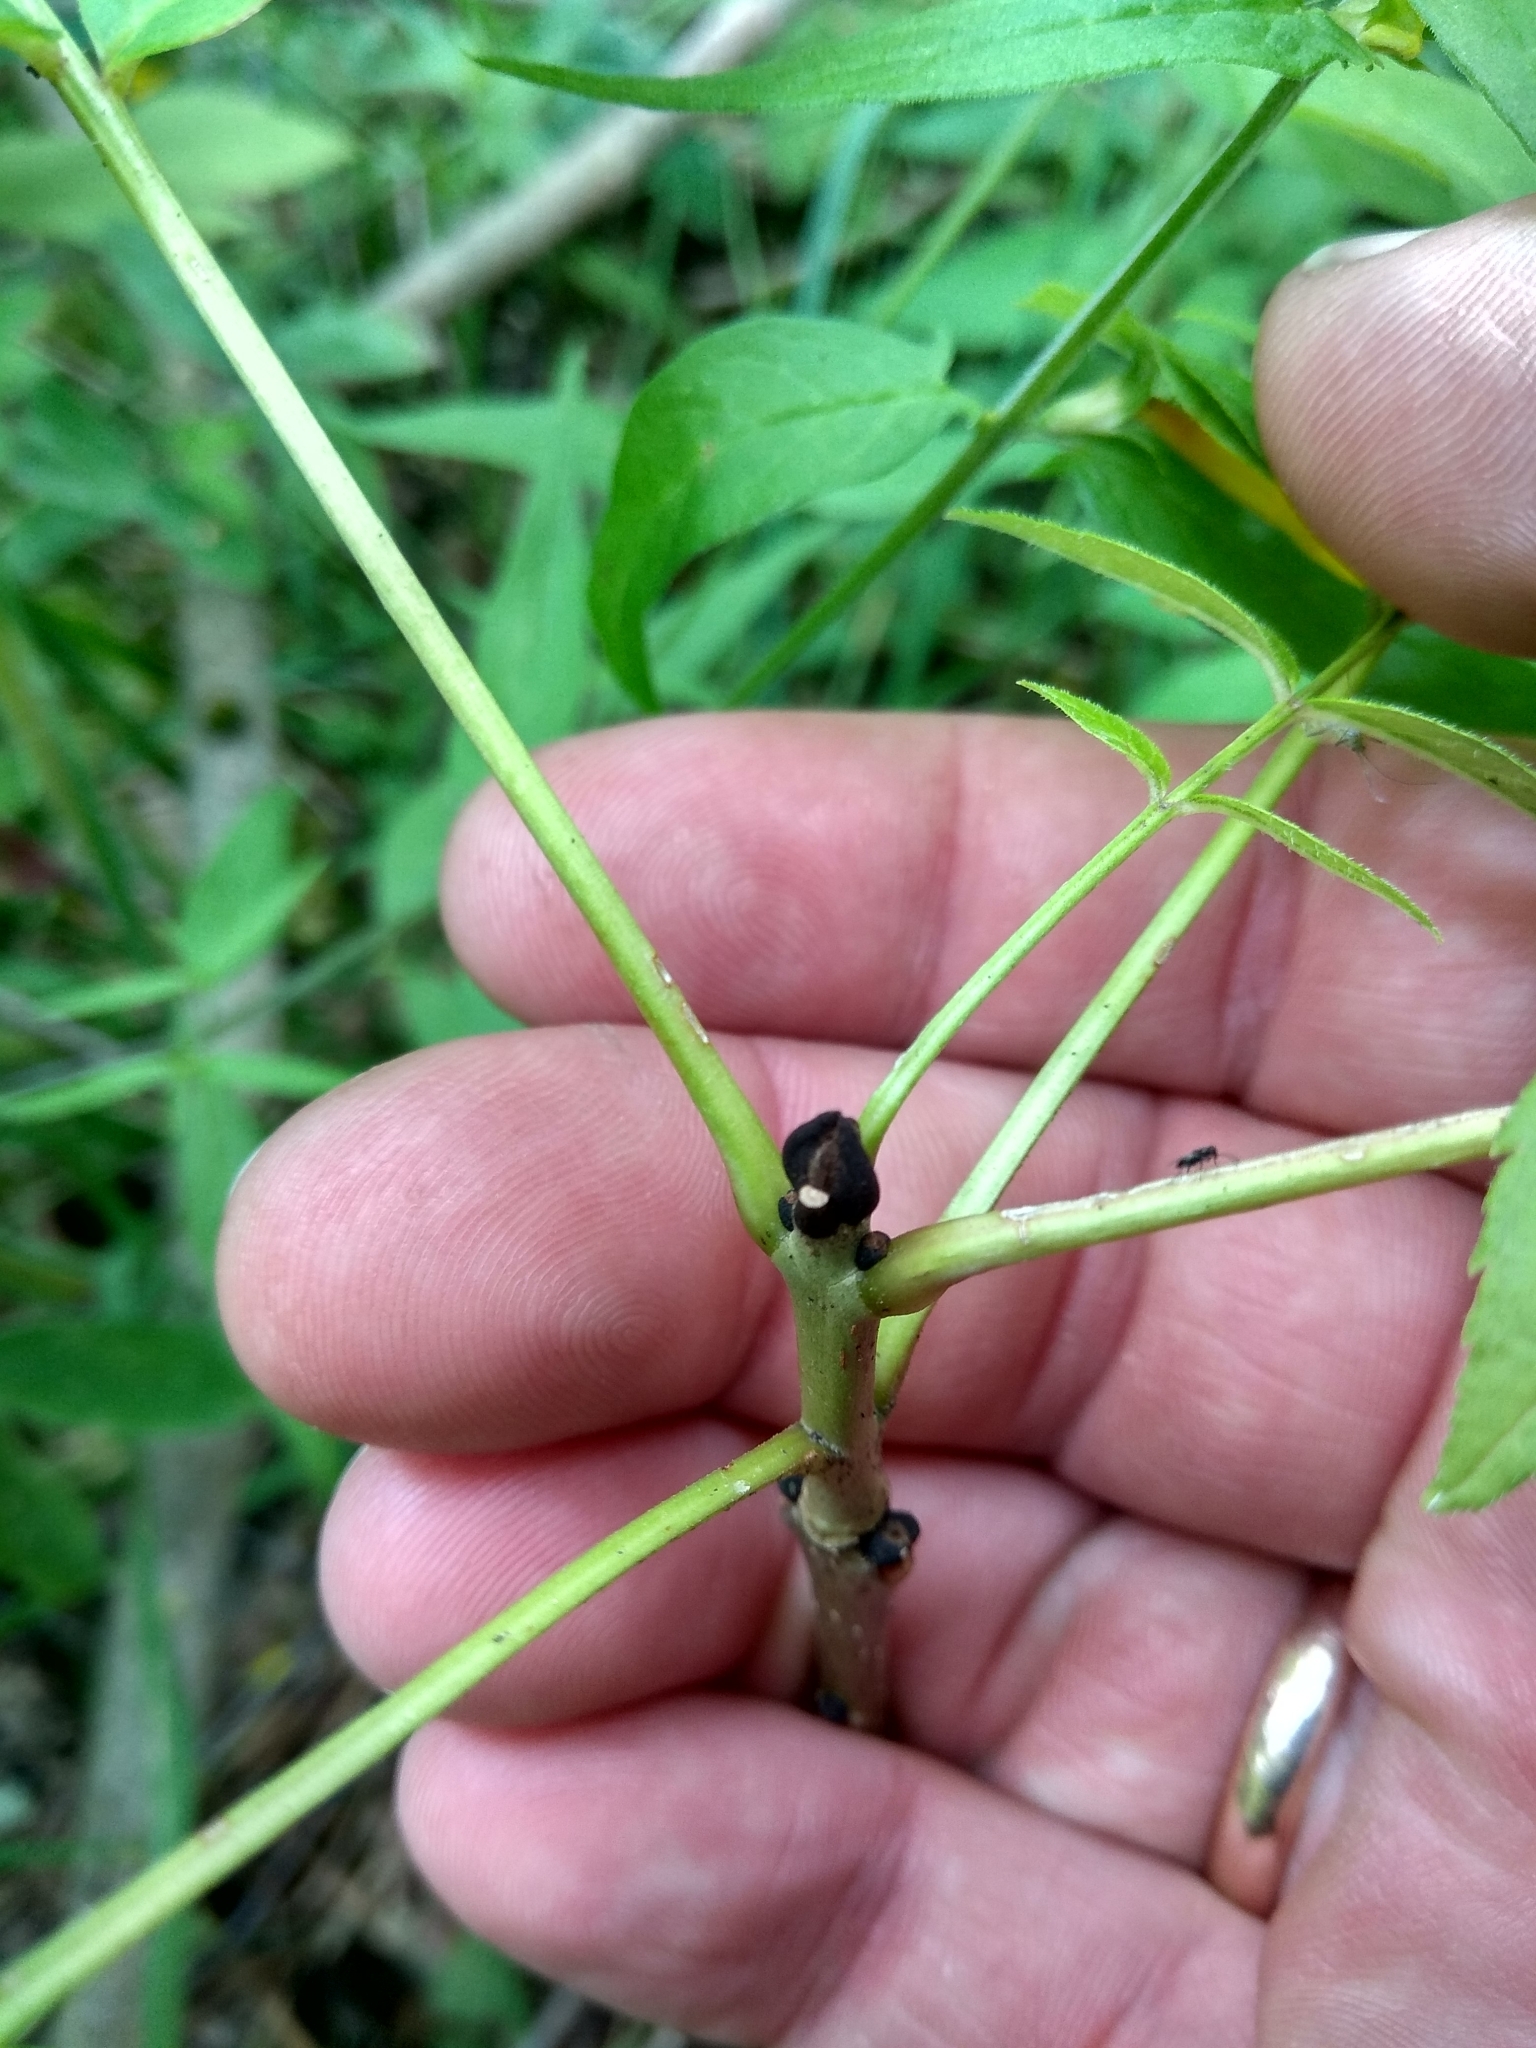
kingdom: Plantae
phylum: Tracheophyta
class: Magnoliopsida
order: Lamiales
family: Oleaceae
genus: Fraxinus
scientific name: Fraxinus excelsior
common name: European ash
